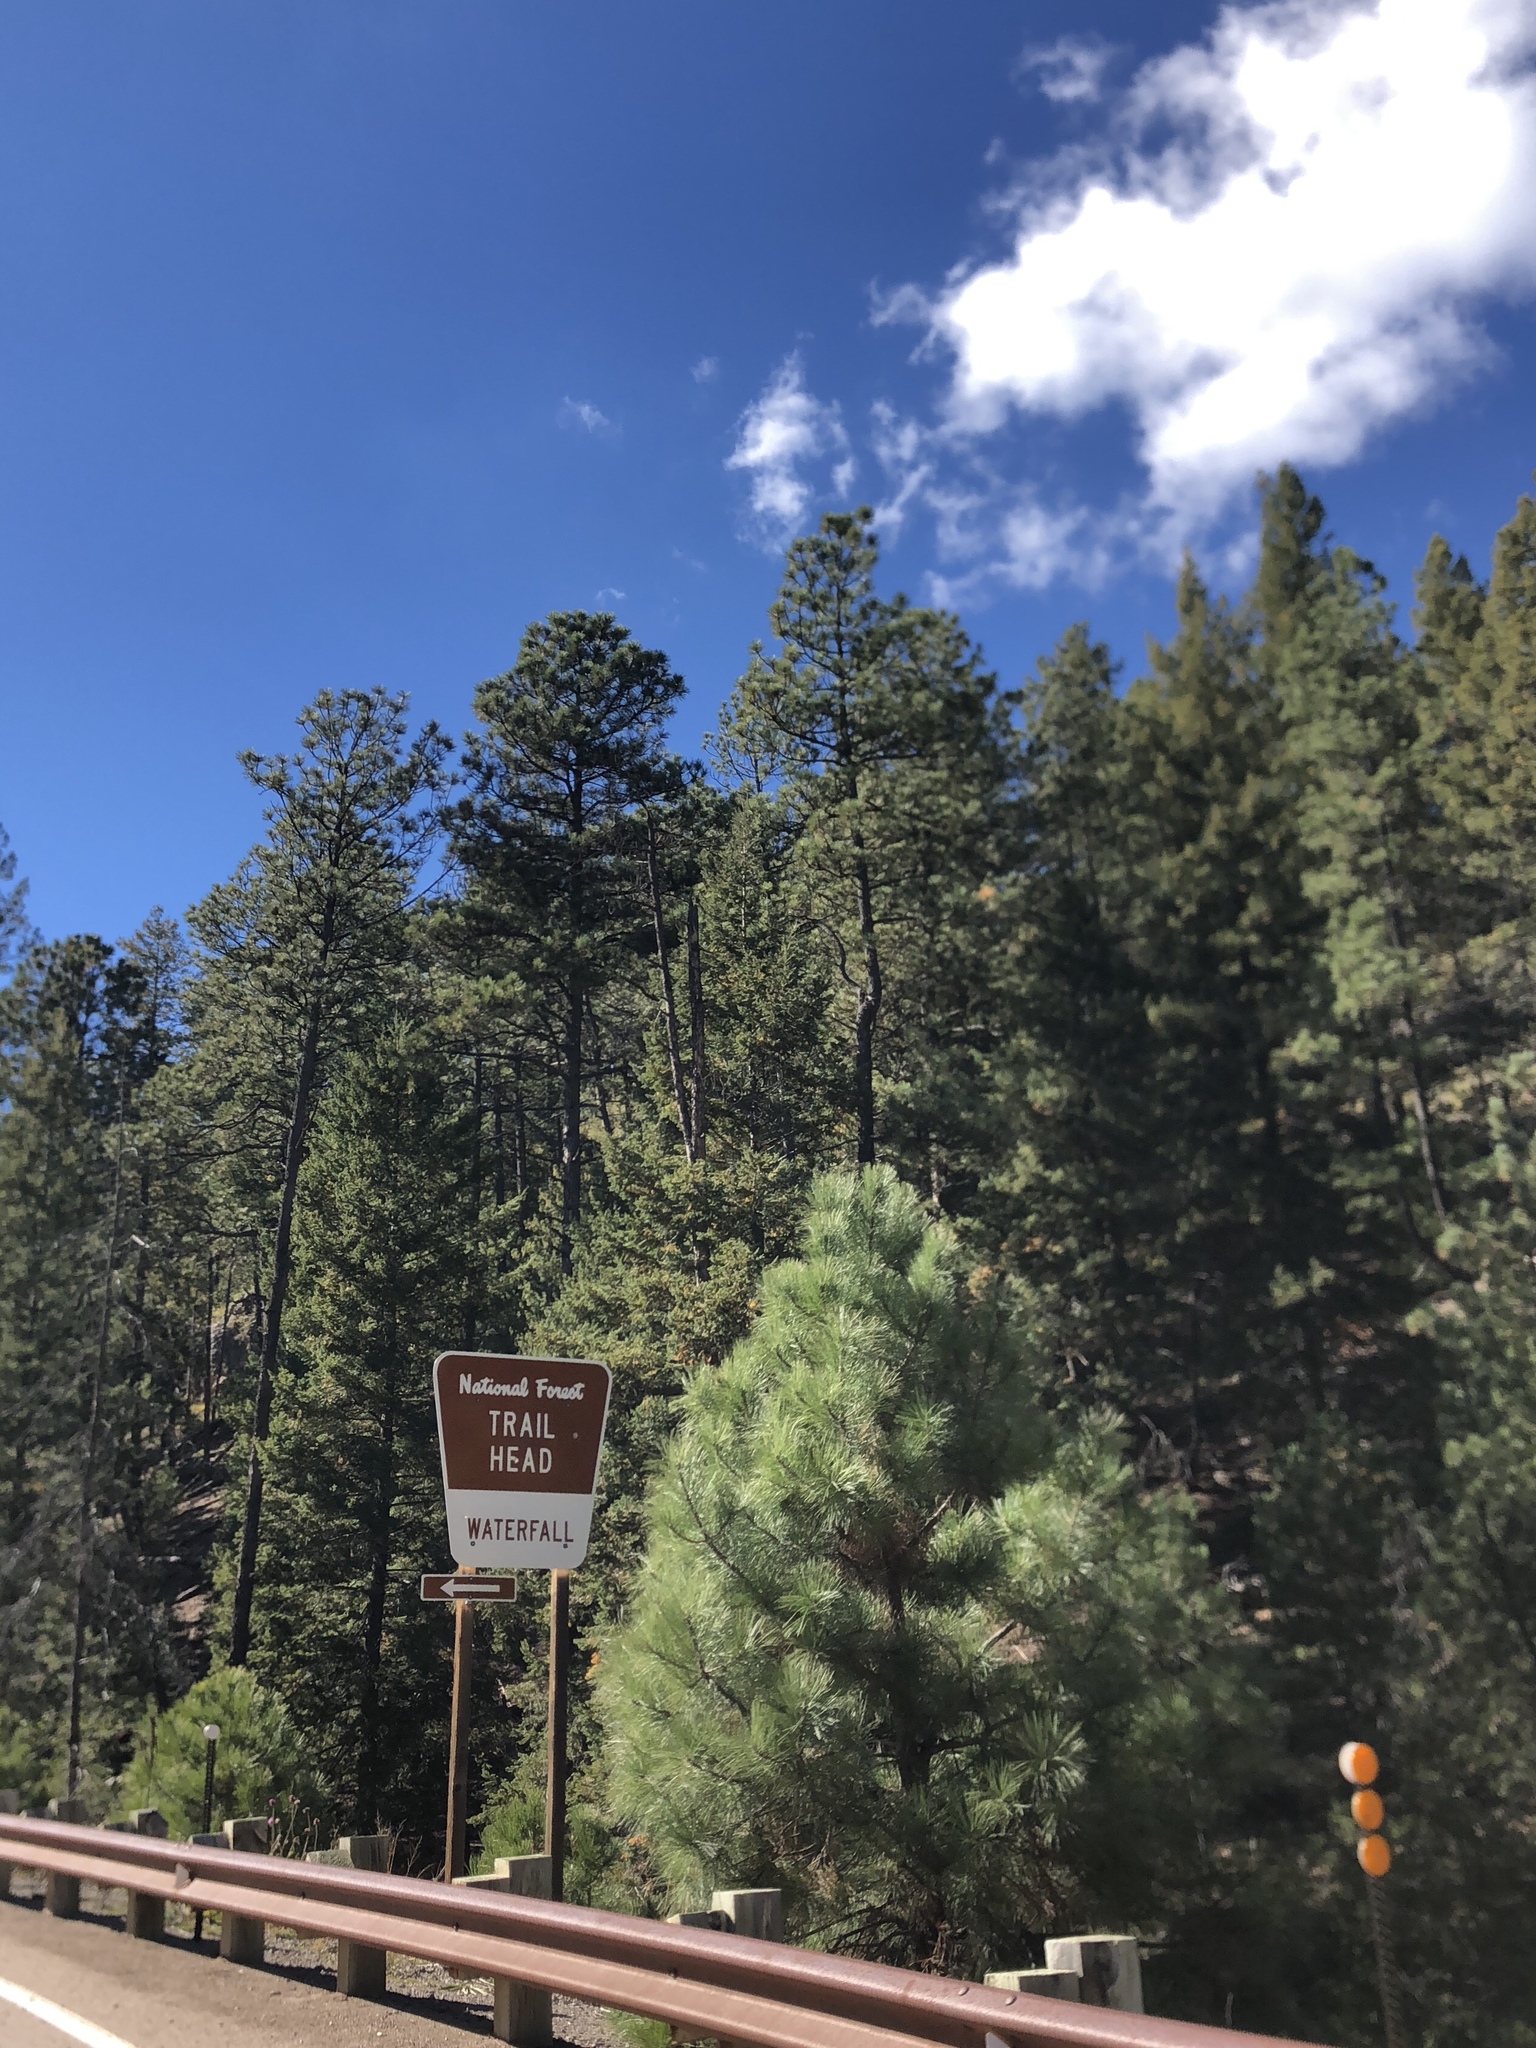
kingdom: Plantae
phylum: Tracheophyta
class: Pinopsida
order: Pinales
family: Pinaceae
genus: Pinus
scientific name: Pinus ponderosa
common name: Western yellow-pine
